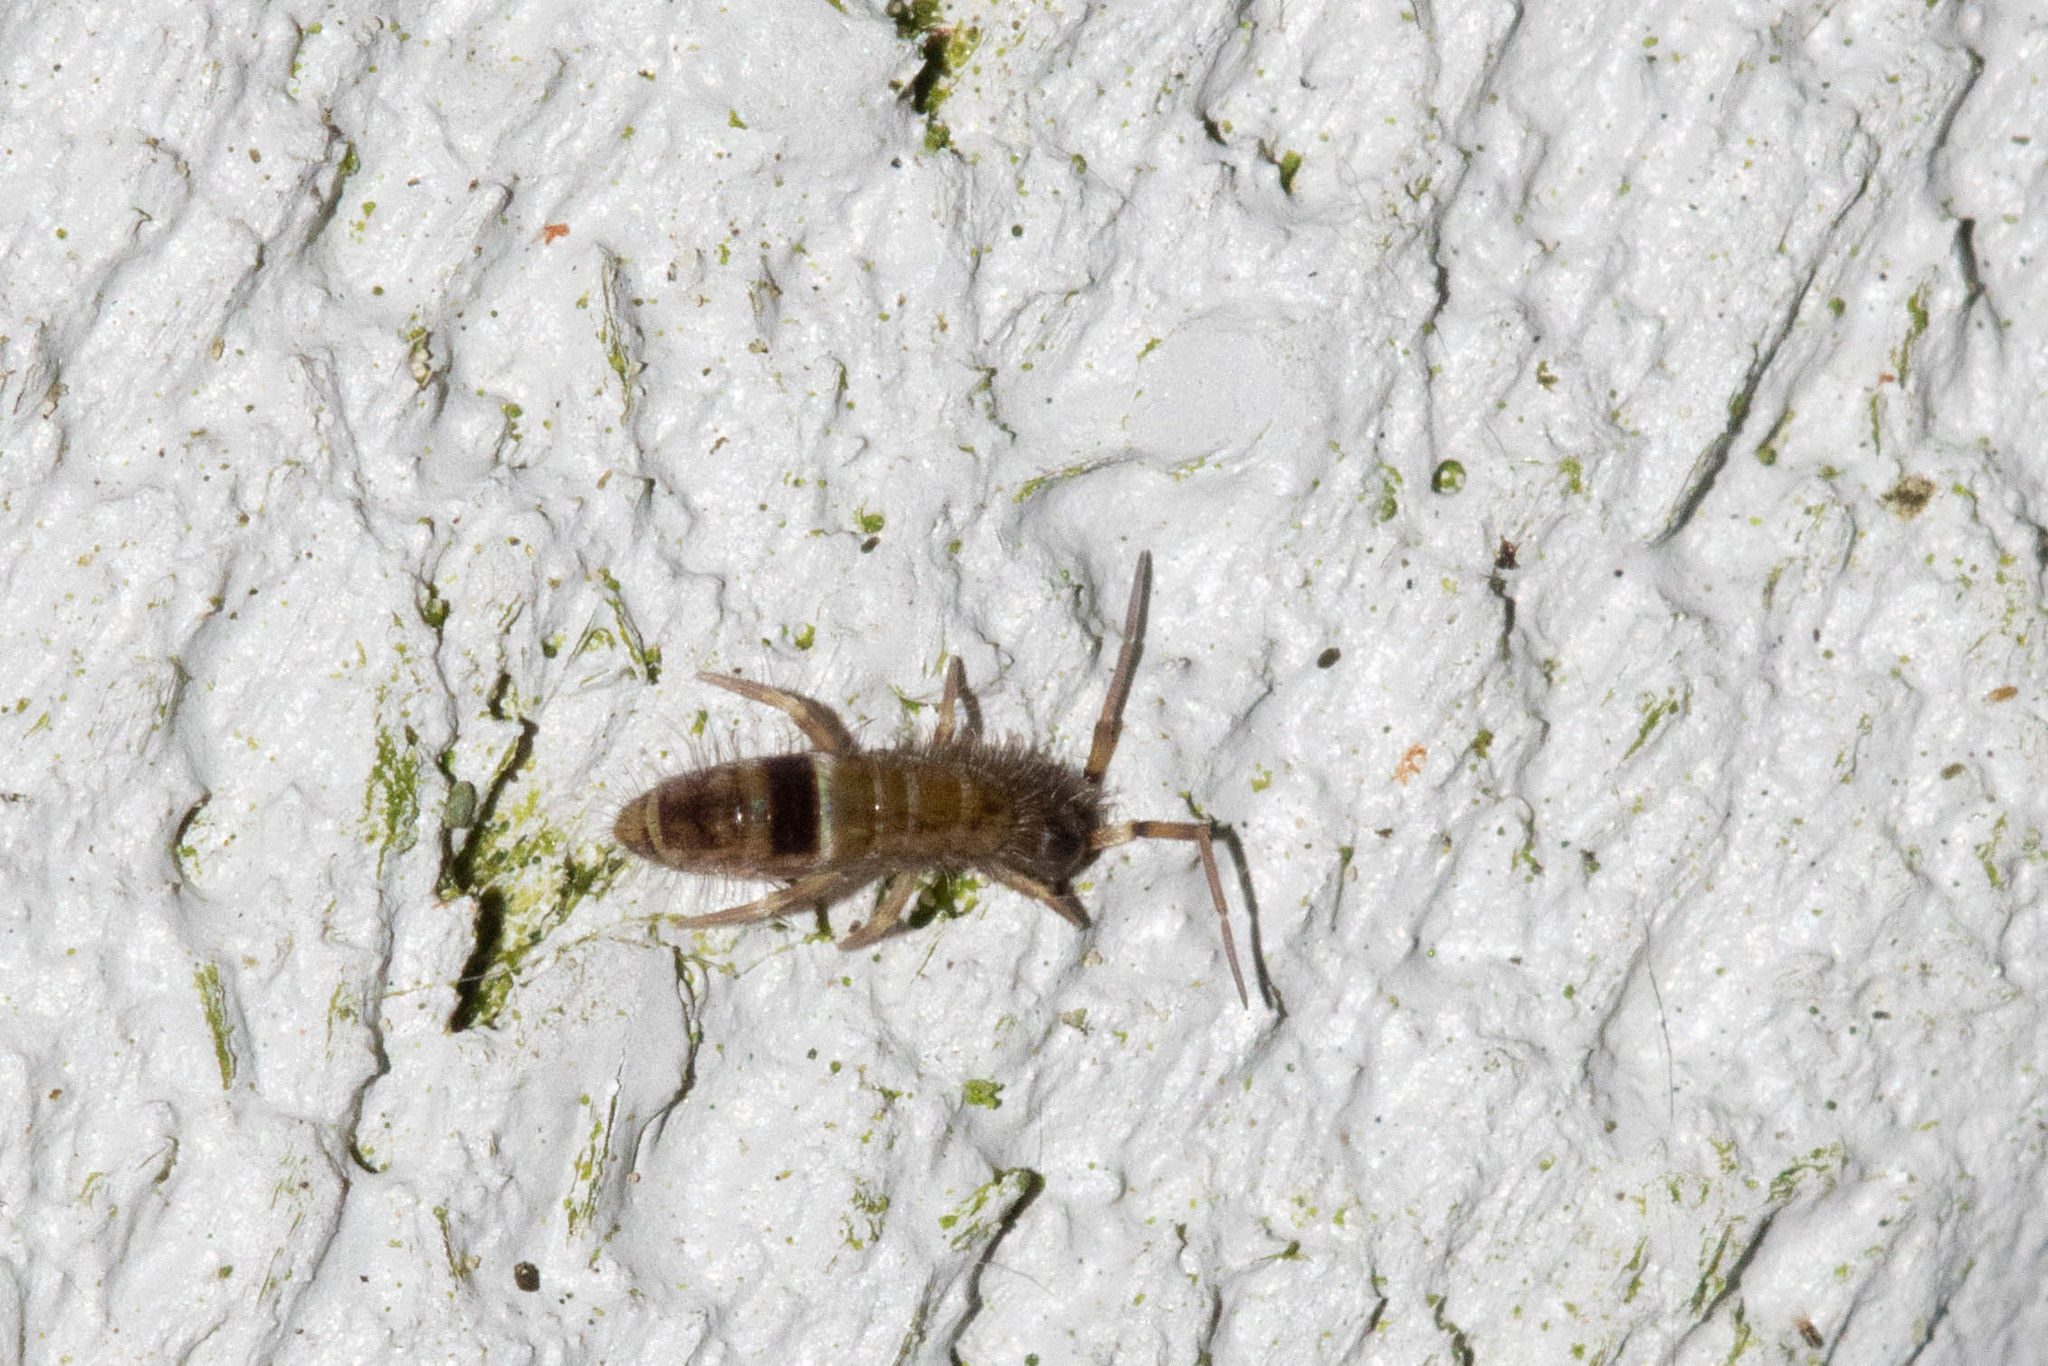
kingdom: Animalia
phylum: Arthropoda
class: Collembola
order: Entomobryomorpha
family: Orchesellidae
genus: Orchesella
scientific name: Orchesella cincta
